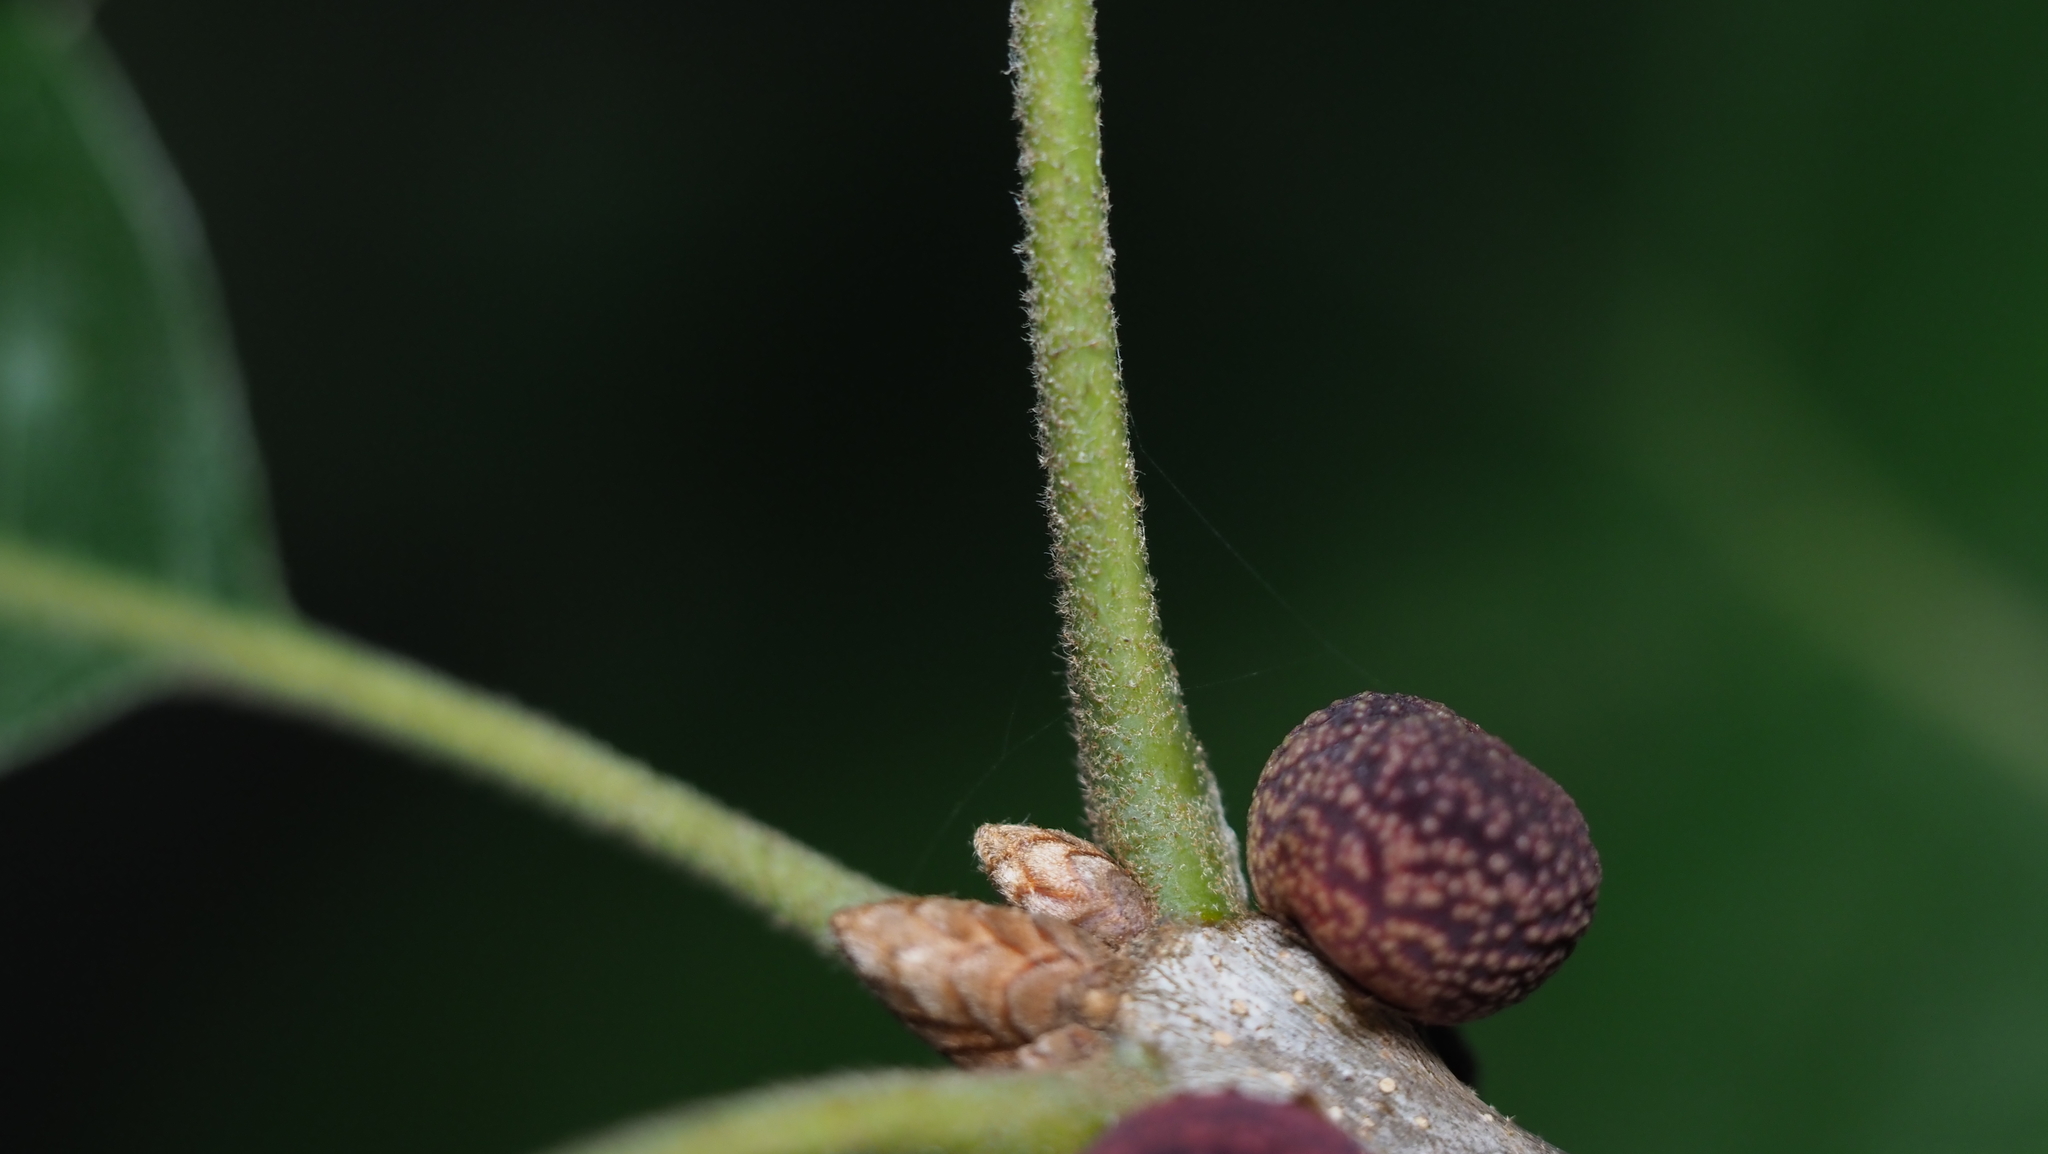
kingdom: Plantae
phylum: Tracheophyta
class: Magnoliopsida
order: Fagales
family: Fagaceae
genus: Quercus
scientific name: Quercus velutina
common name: Black oak
